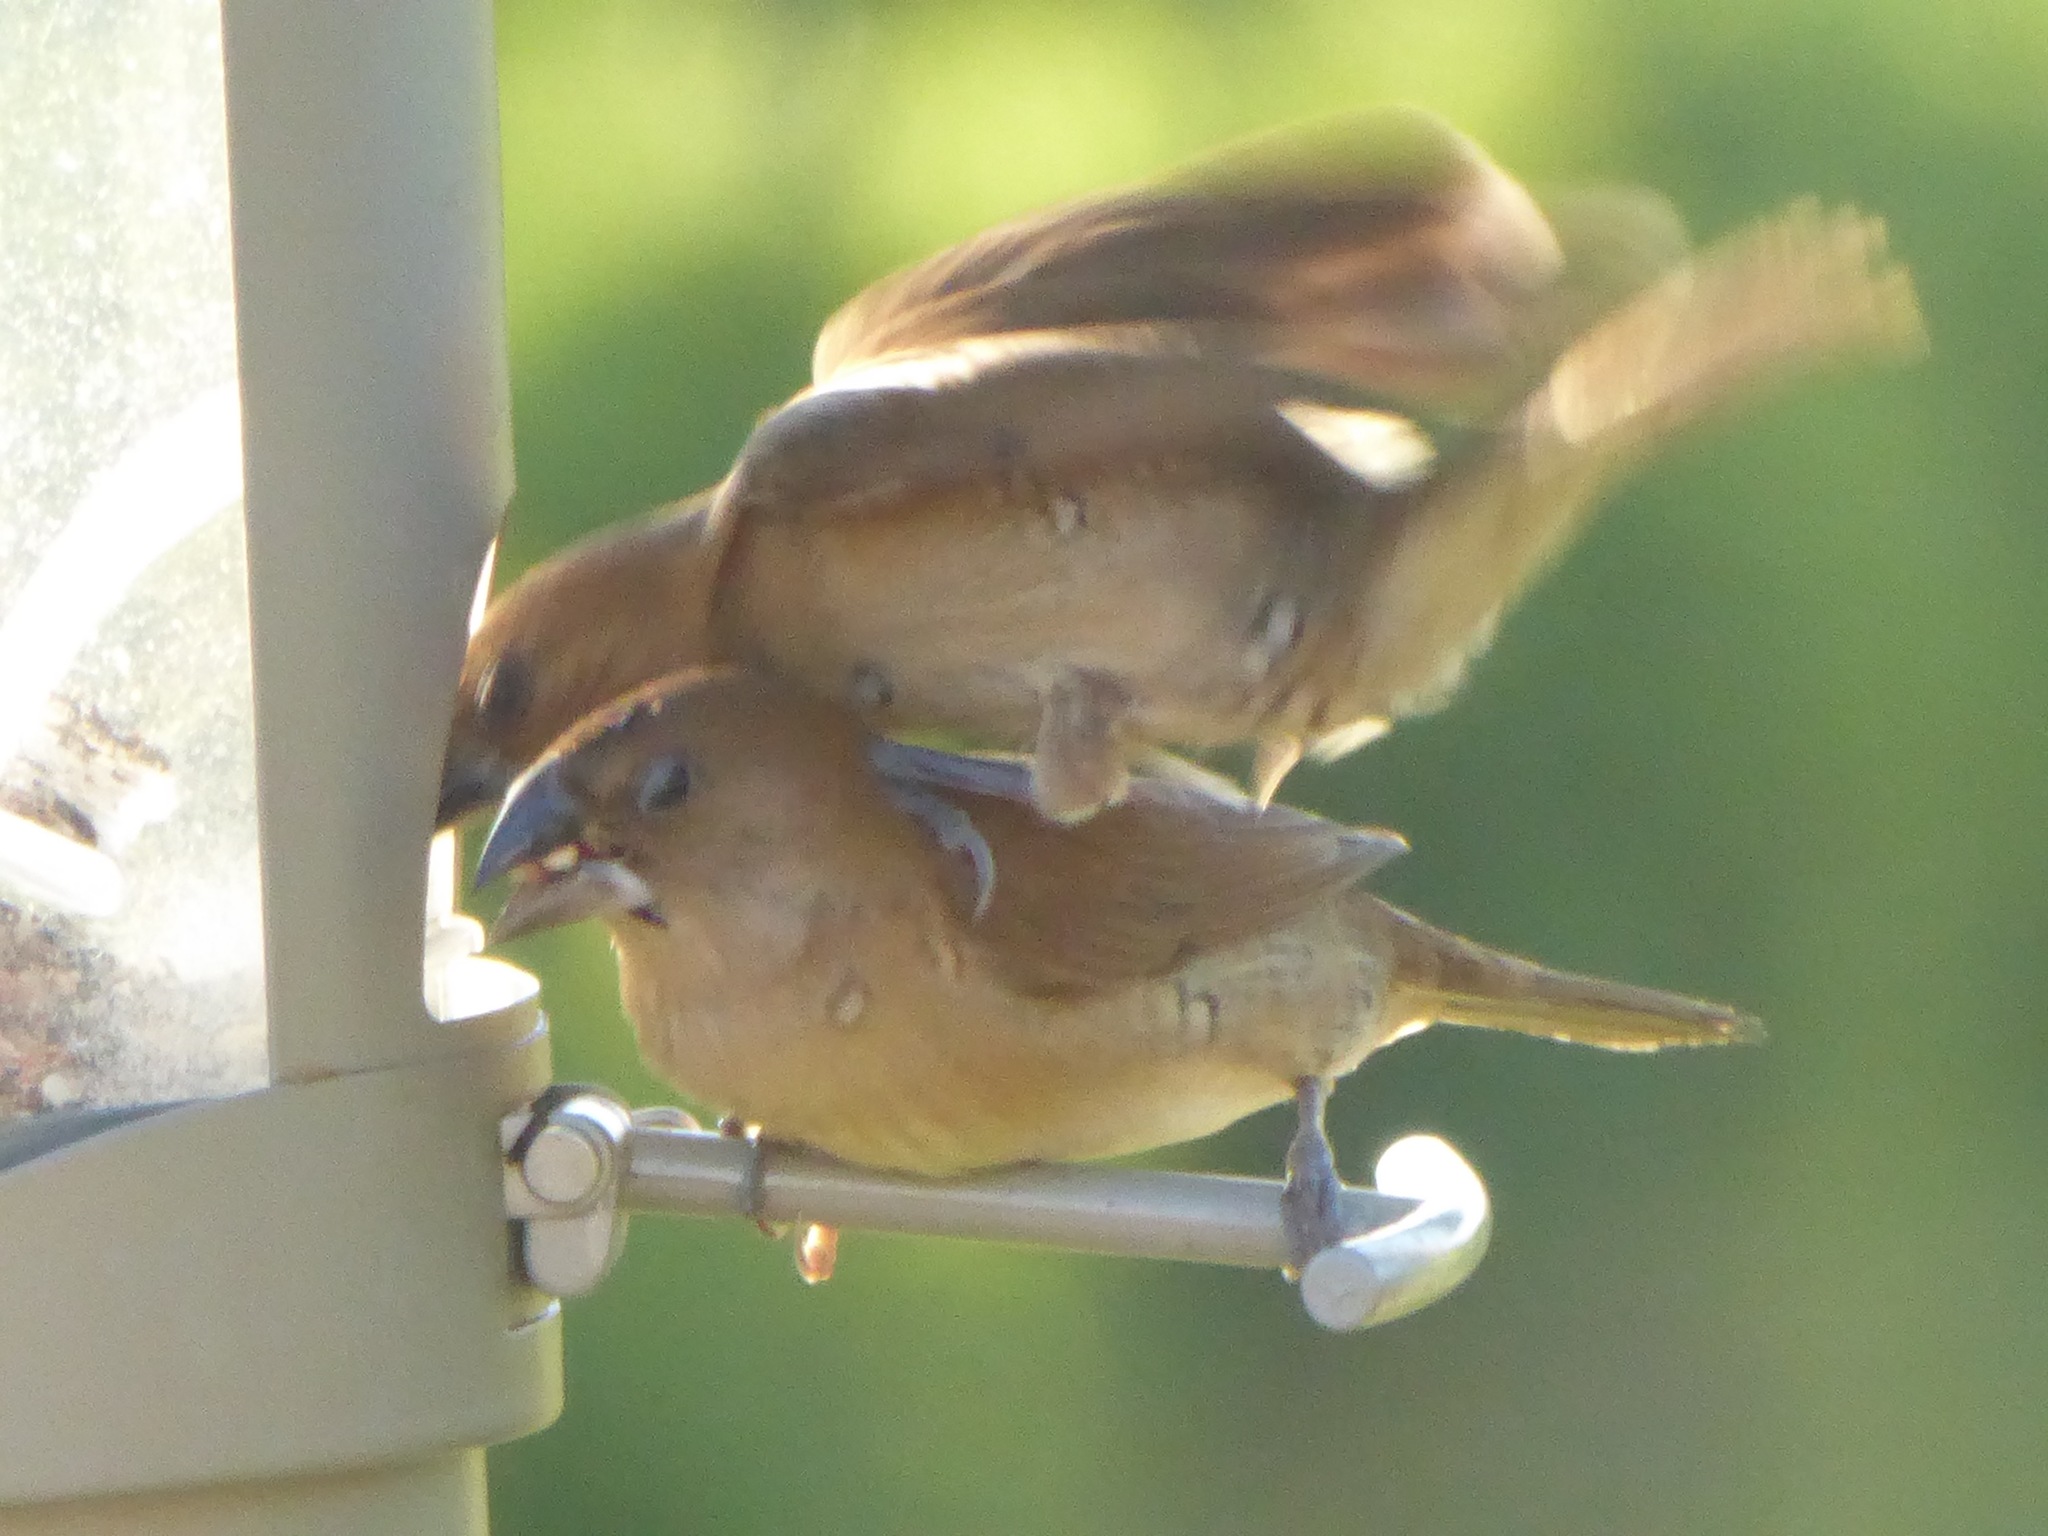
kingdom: Animalia
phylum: Chordata
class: Aves
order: Passeriformes
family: Estrildidae
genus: Lonchura
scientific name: Lonchura punctulata
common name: Scaly-breasted munia
